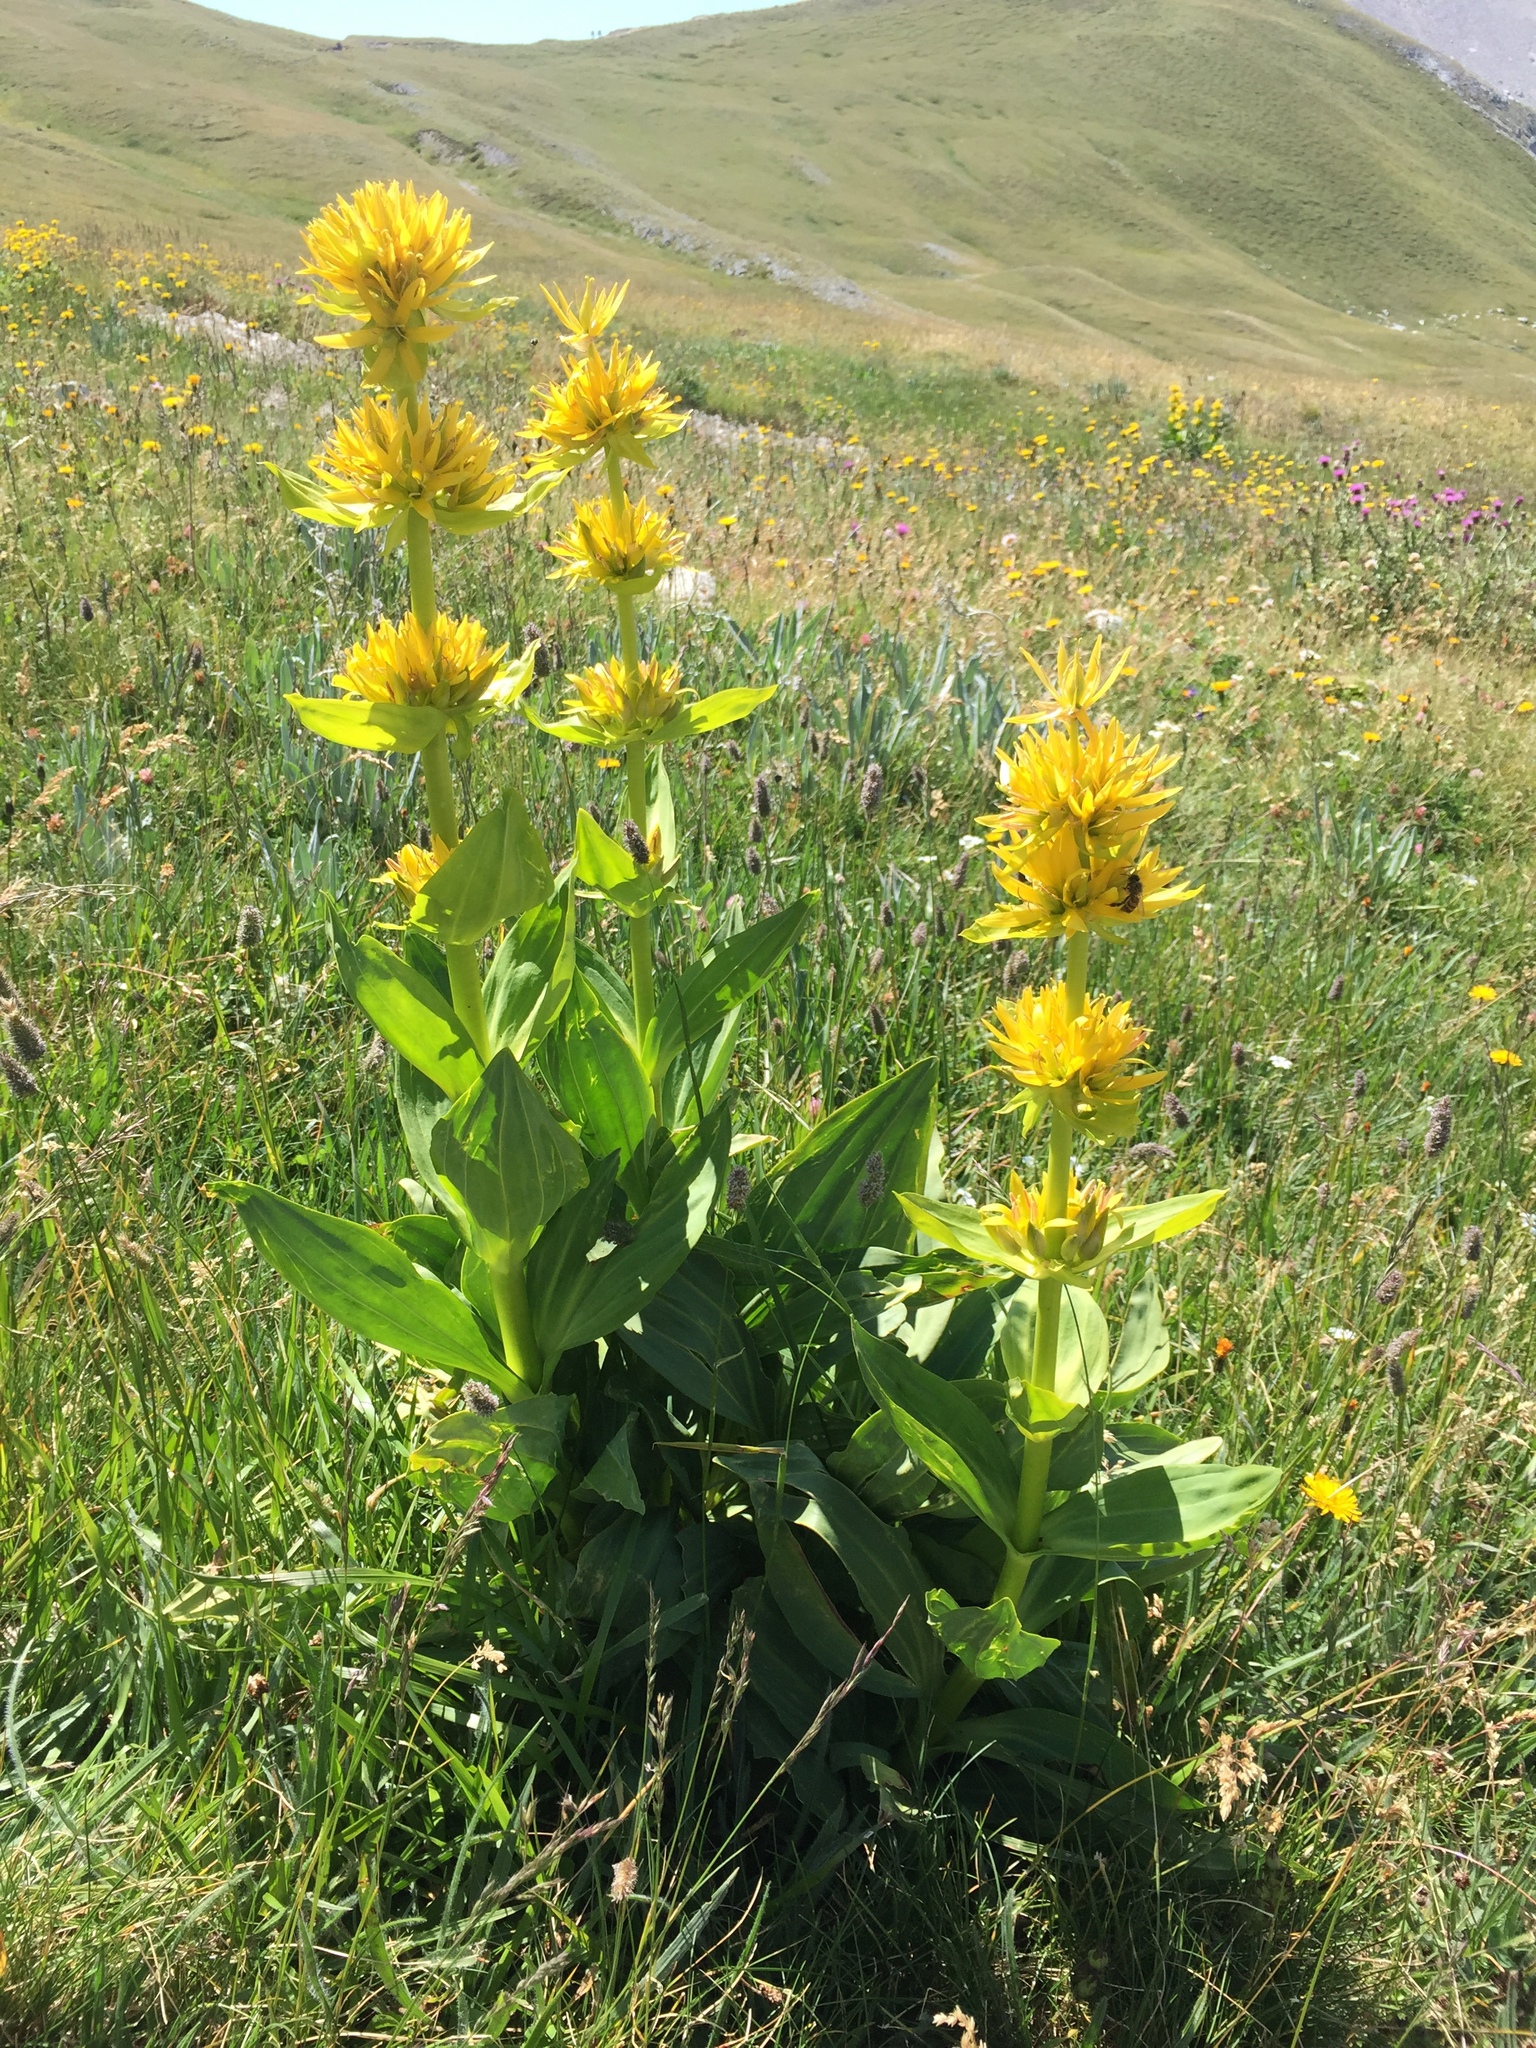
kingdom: Plantae
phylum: Tracheophyta
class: Magnoliopsida
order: Gentianales
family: Gentianaceae
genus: Gentiana
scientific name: Gentiana lutea
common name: Great yellow gentian
